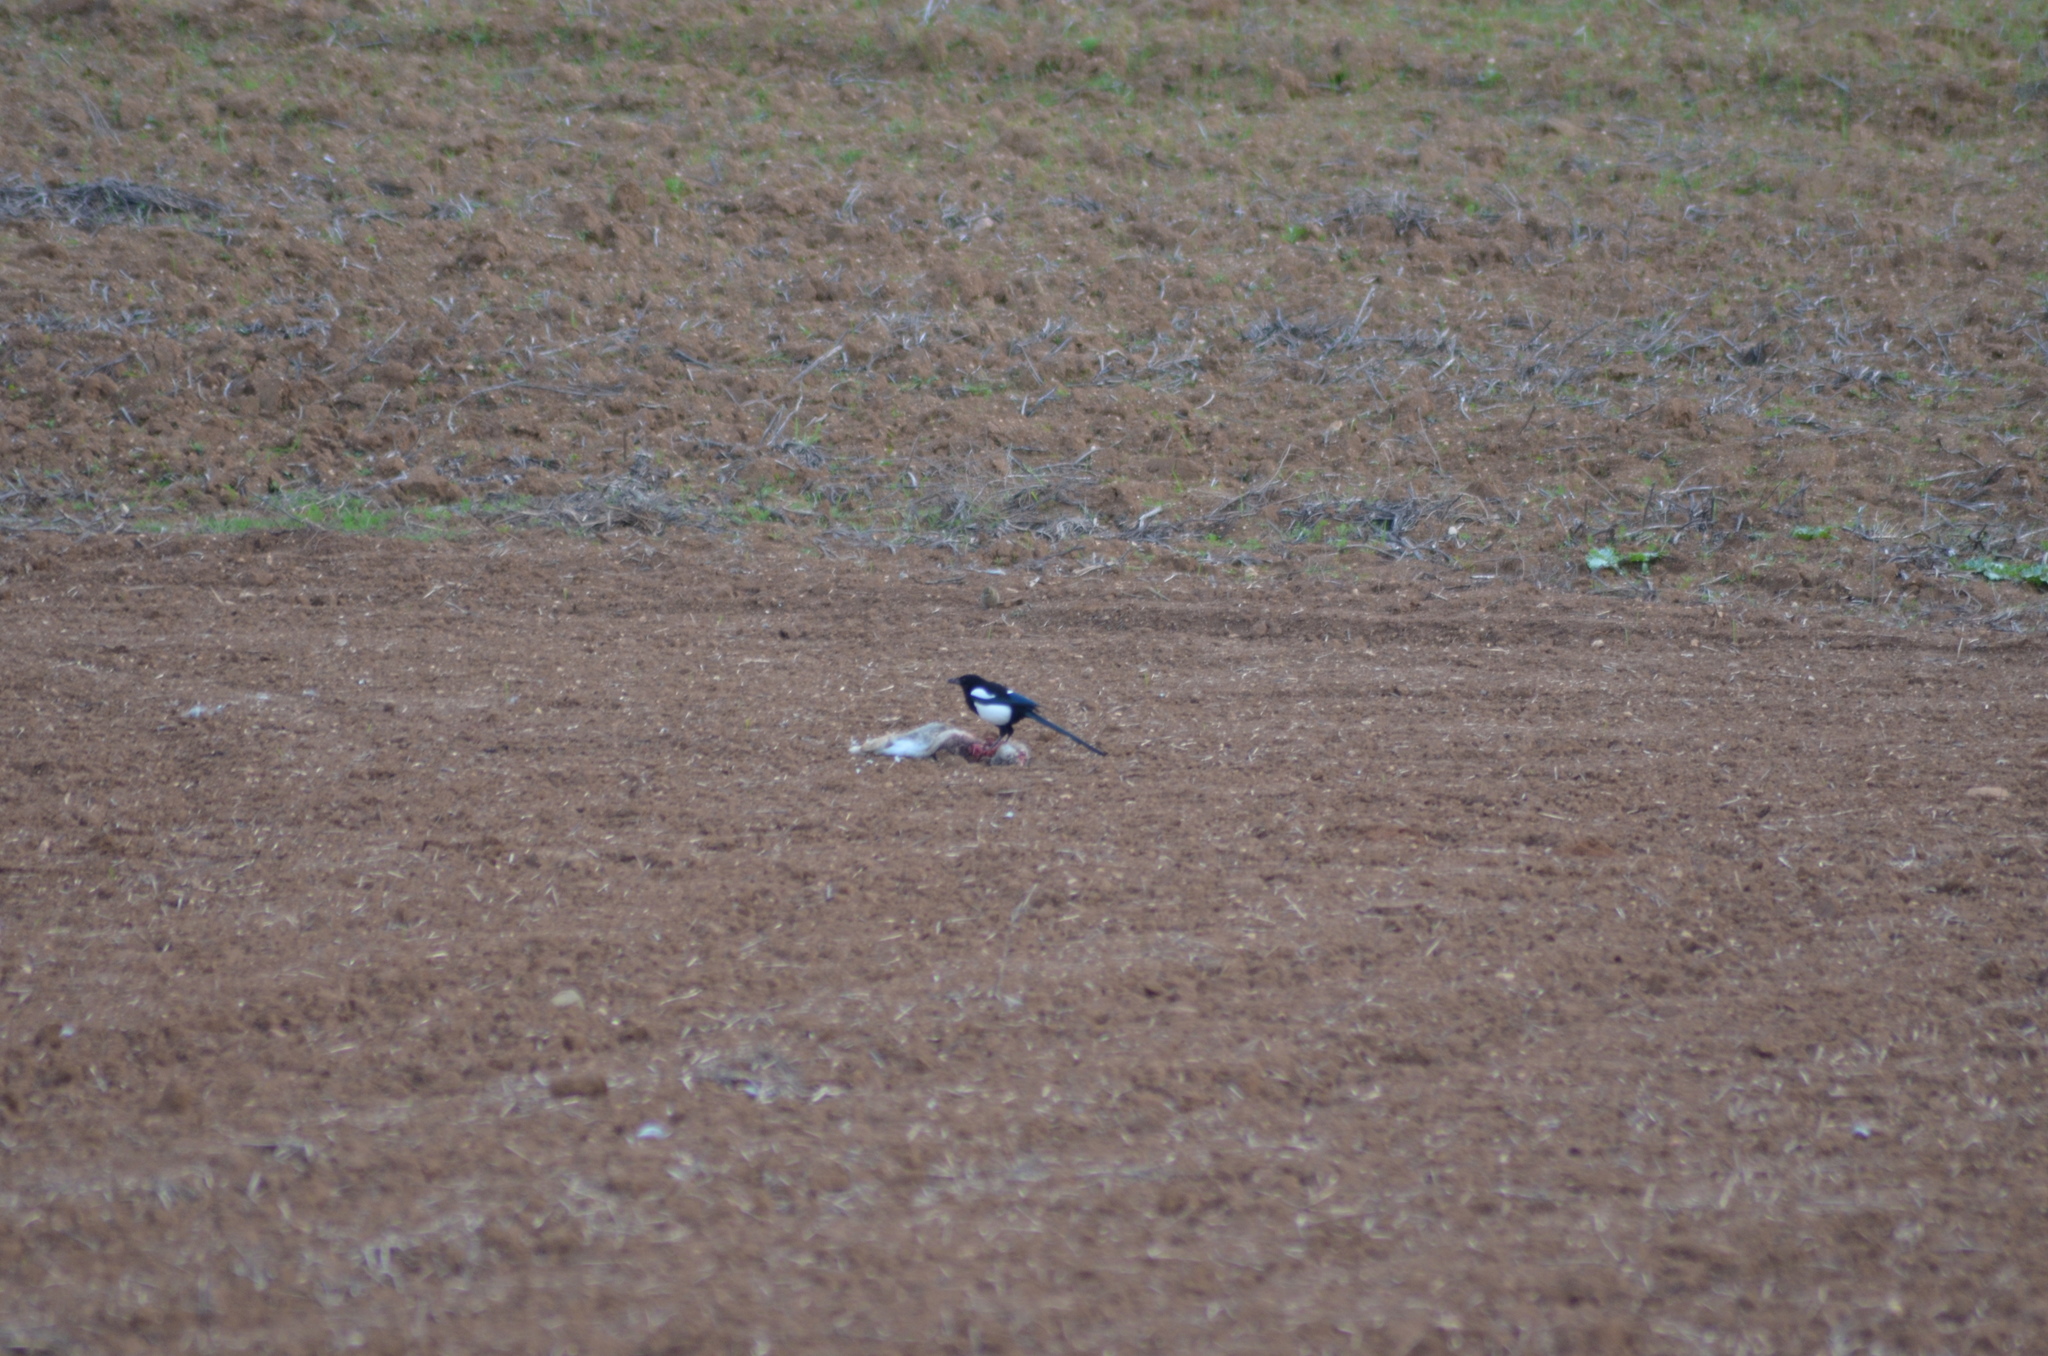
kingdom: Animalia
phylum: Chordata
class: Aves
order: Passeriformes
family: Corvidae
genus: Pica
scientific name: Pica pica
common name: Eurasian magpie
